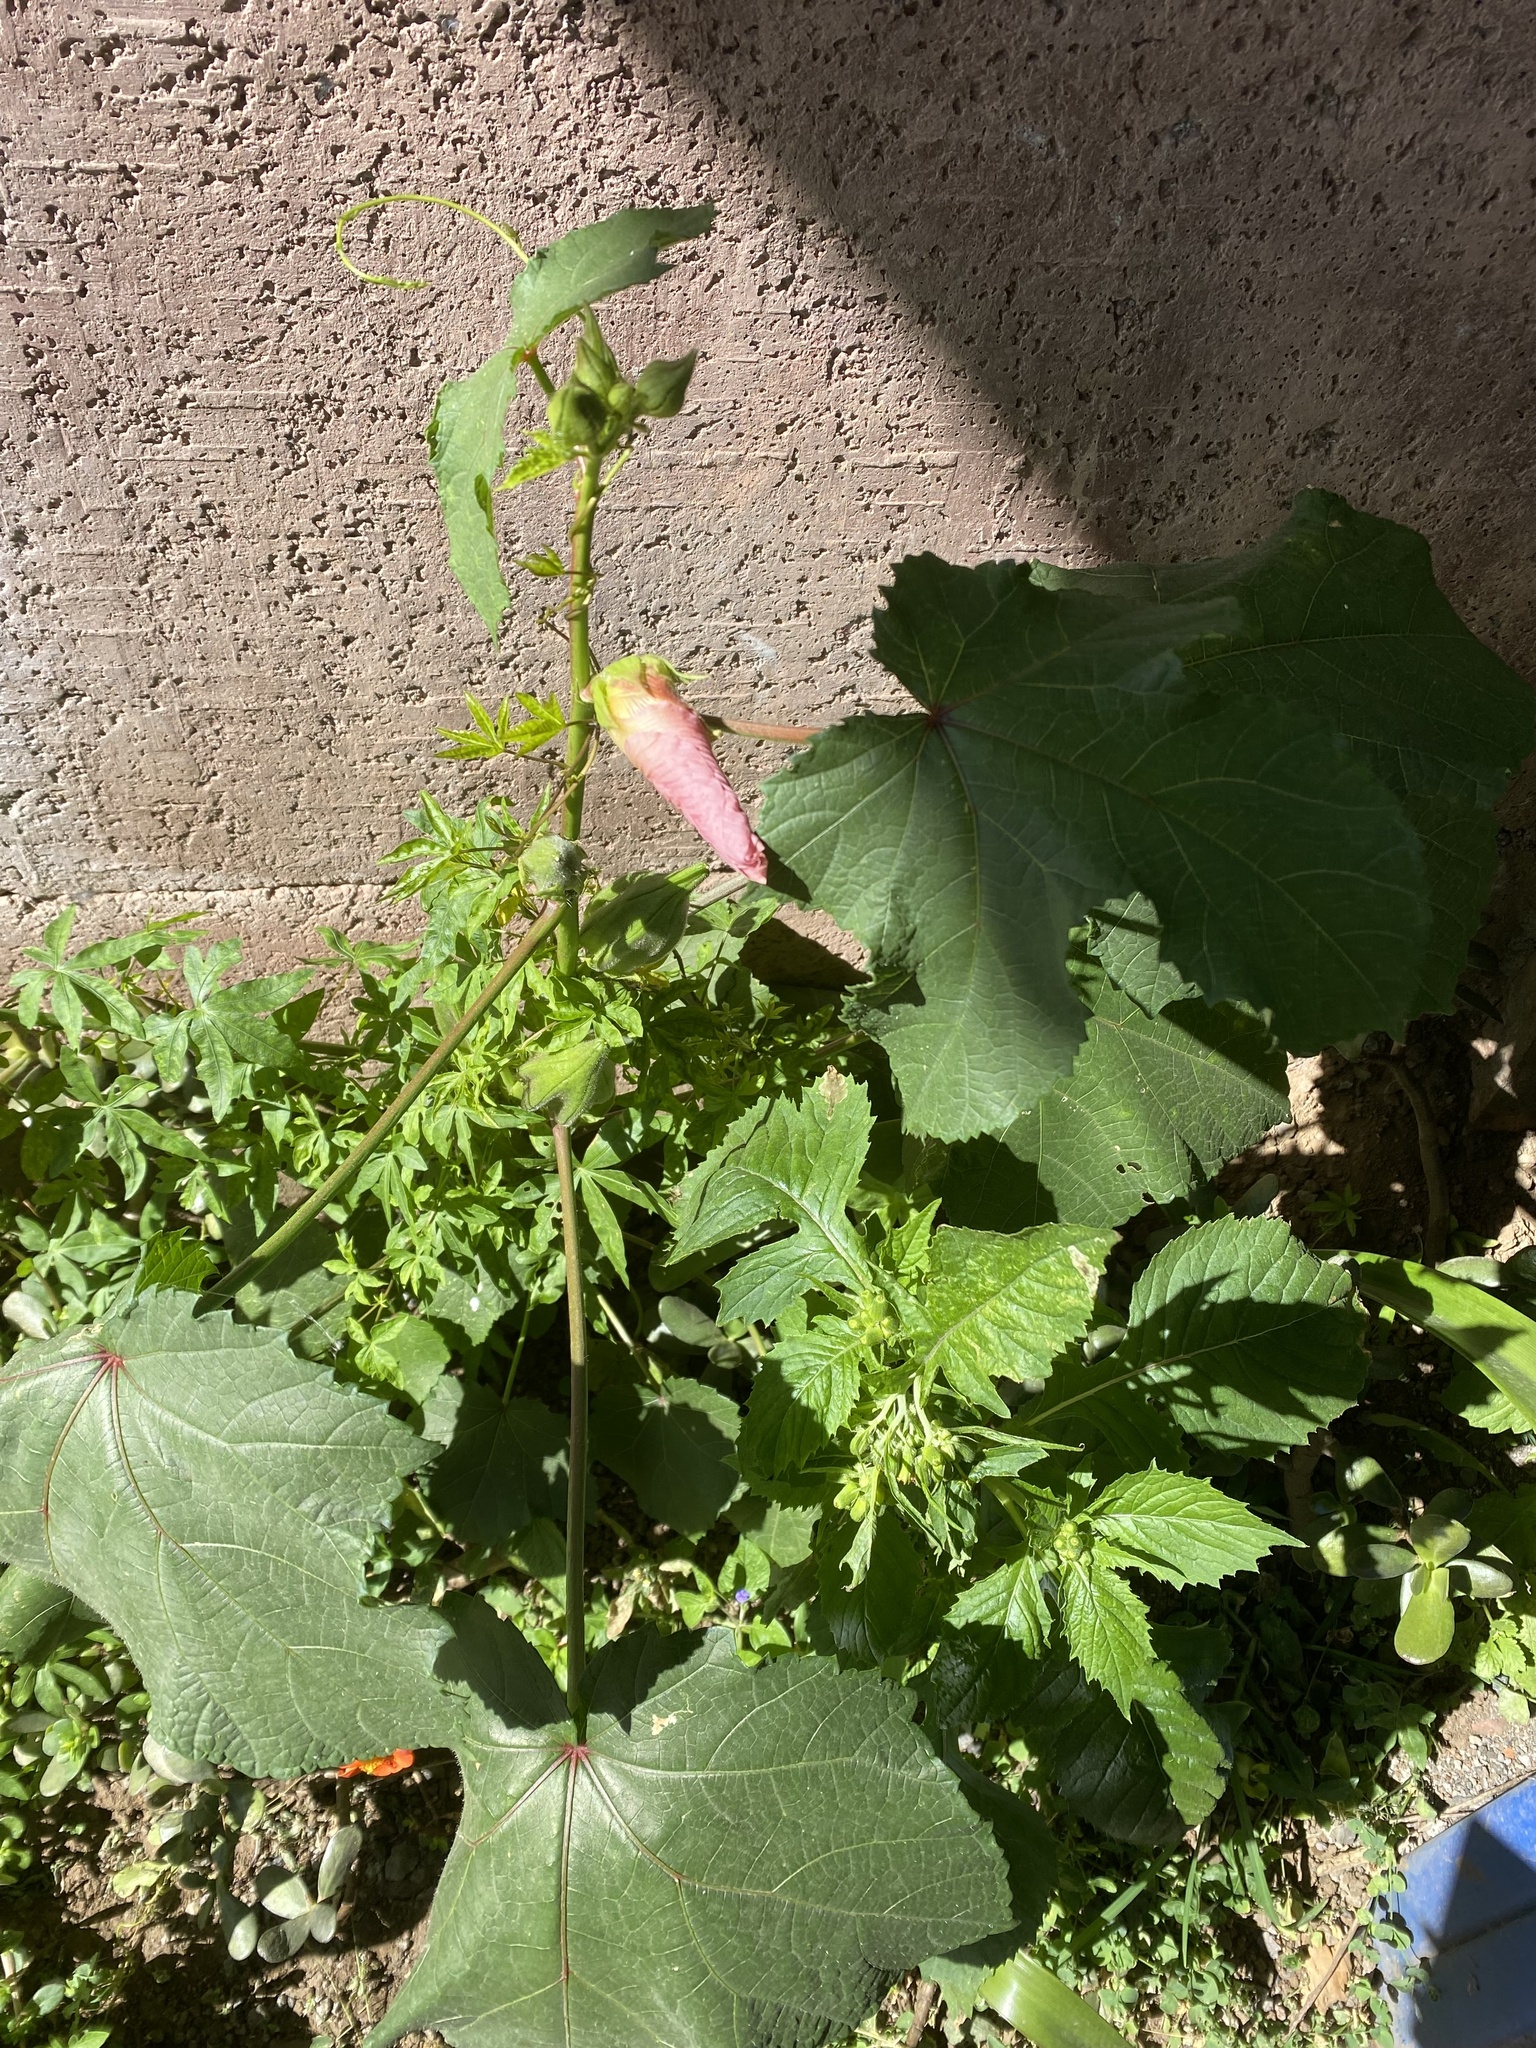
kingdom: Plantae
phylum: Tracheophyta
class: Magnoliopsida
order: Malvales
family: Malvaceae
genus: Abelmoschus
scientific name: Abelmoschus sagittifolius
